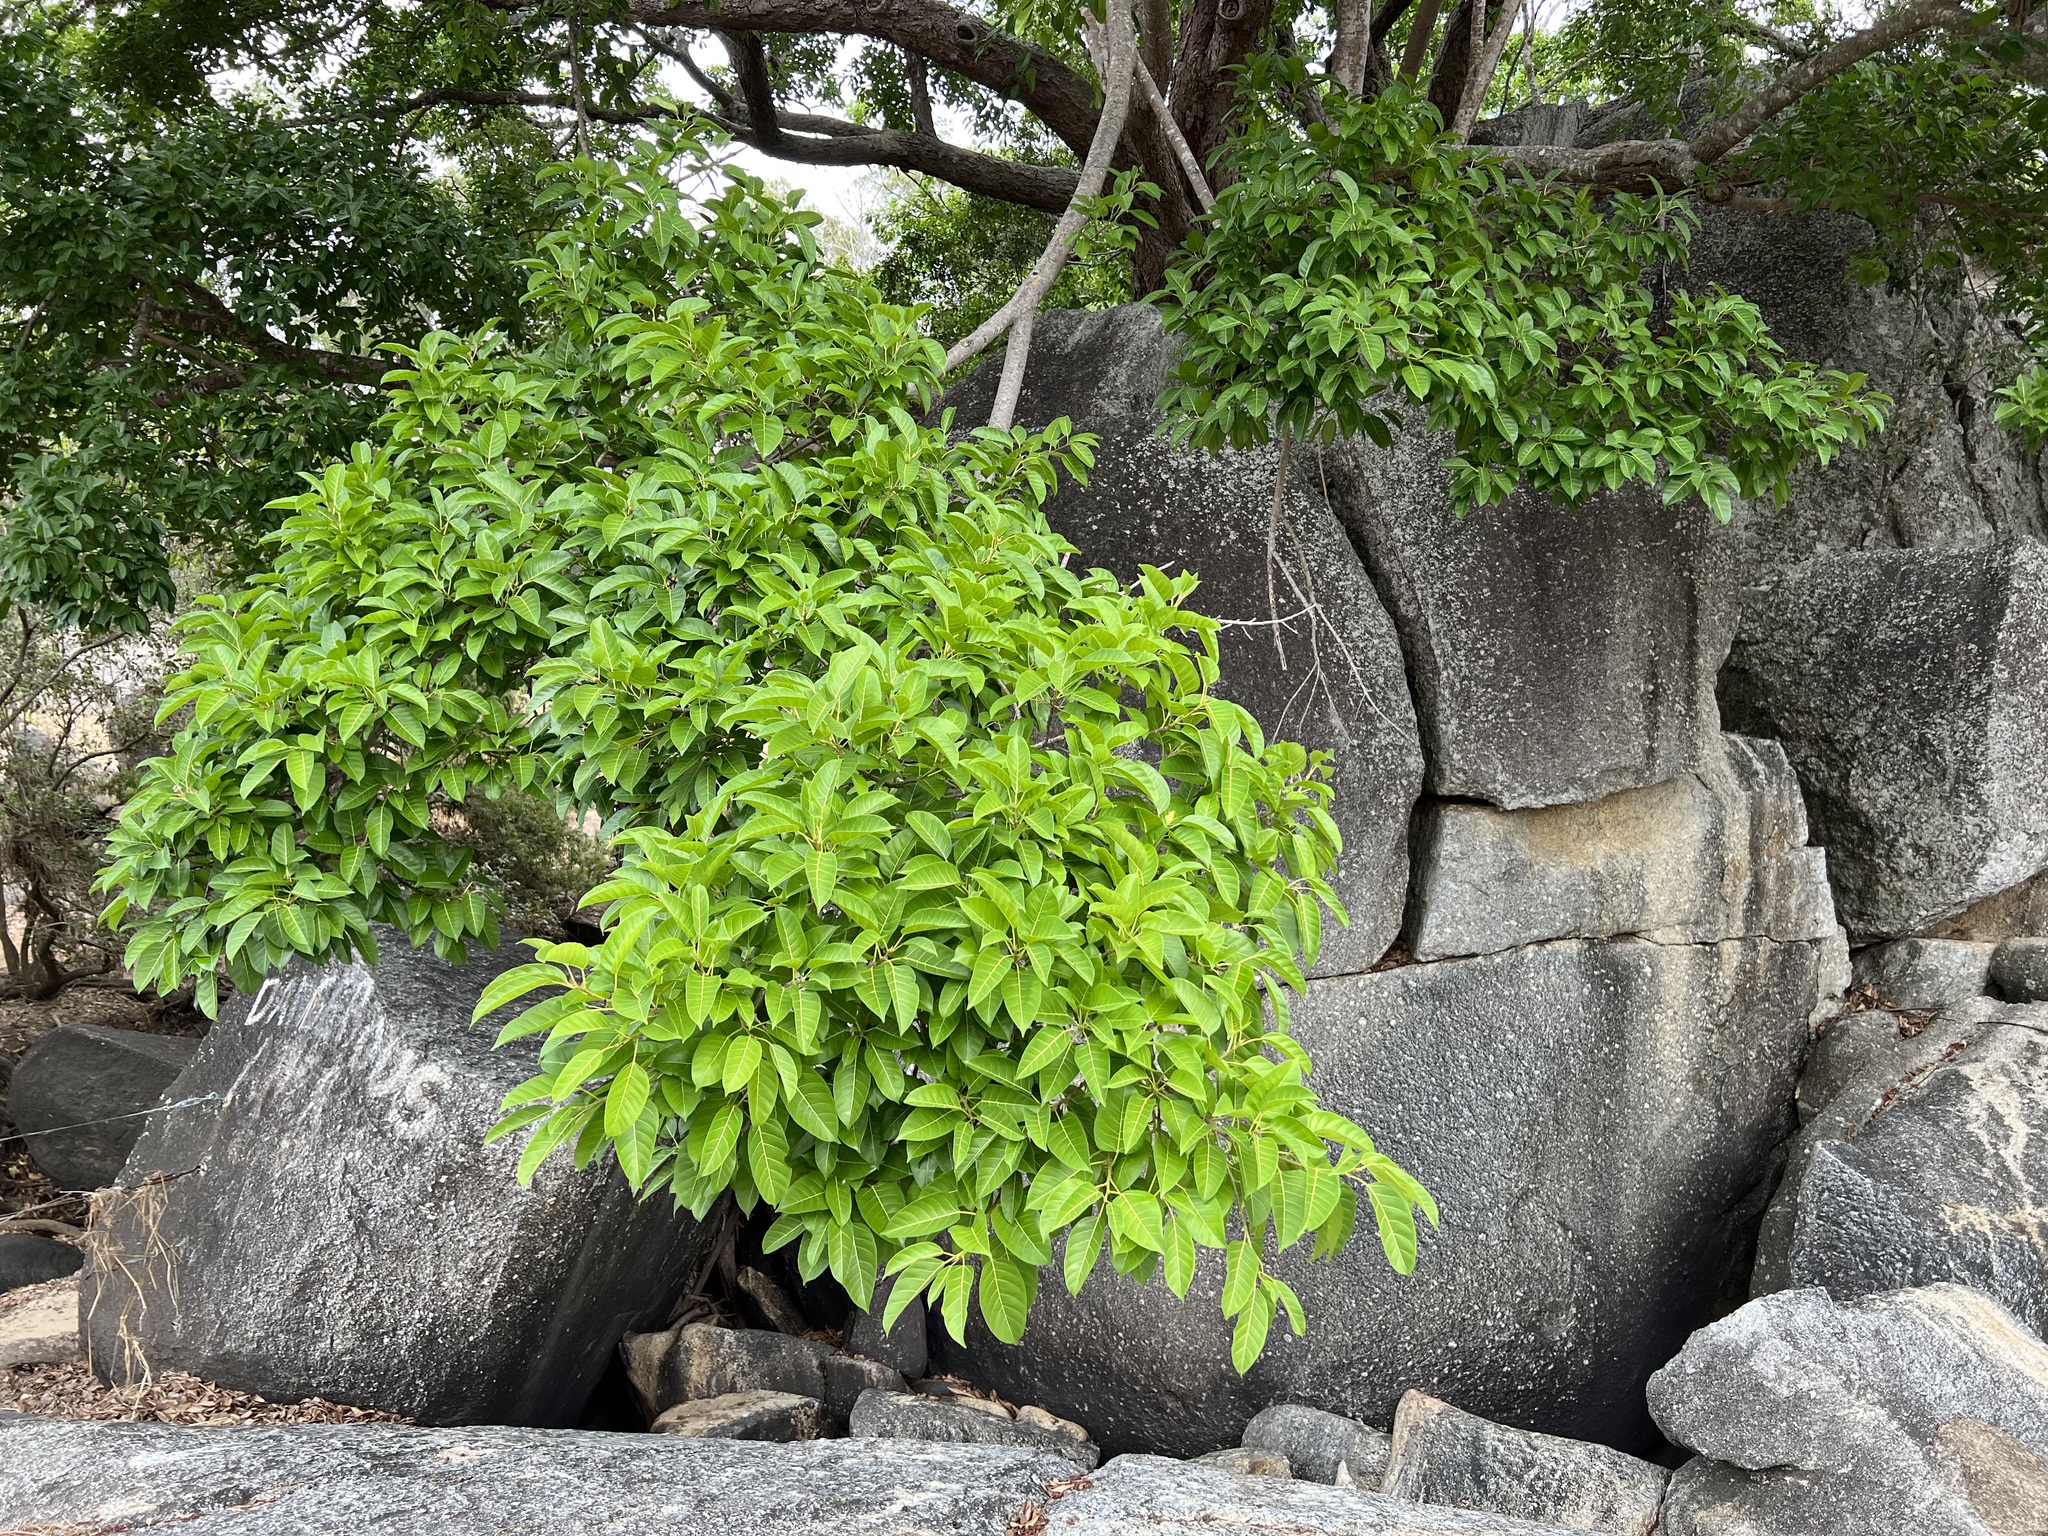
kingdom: Plantae
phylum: Tracheophyta
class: Magnoliopsida
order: Rosales
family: Moraceae
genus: Ficus
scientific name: Ficus virens
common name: Spotted fig
